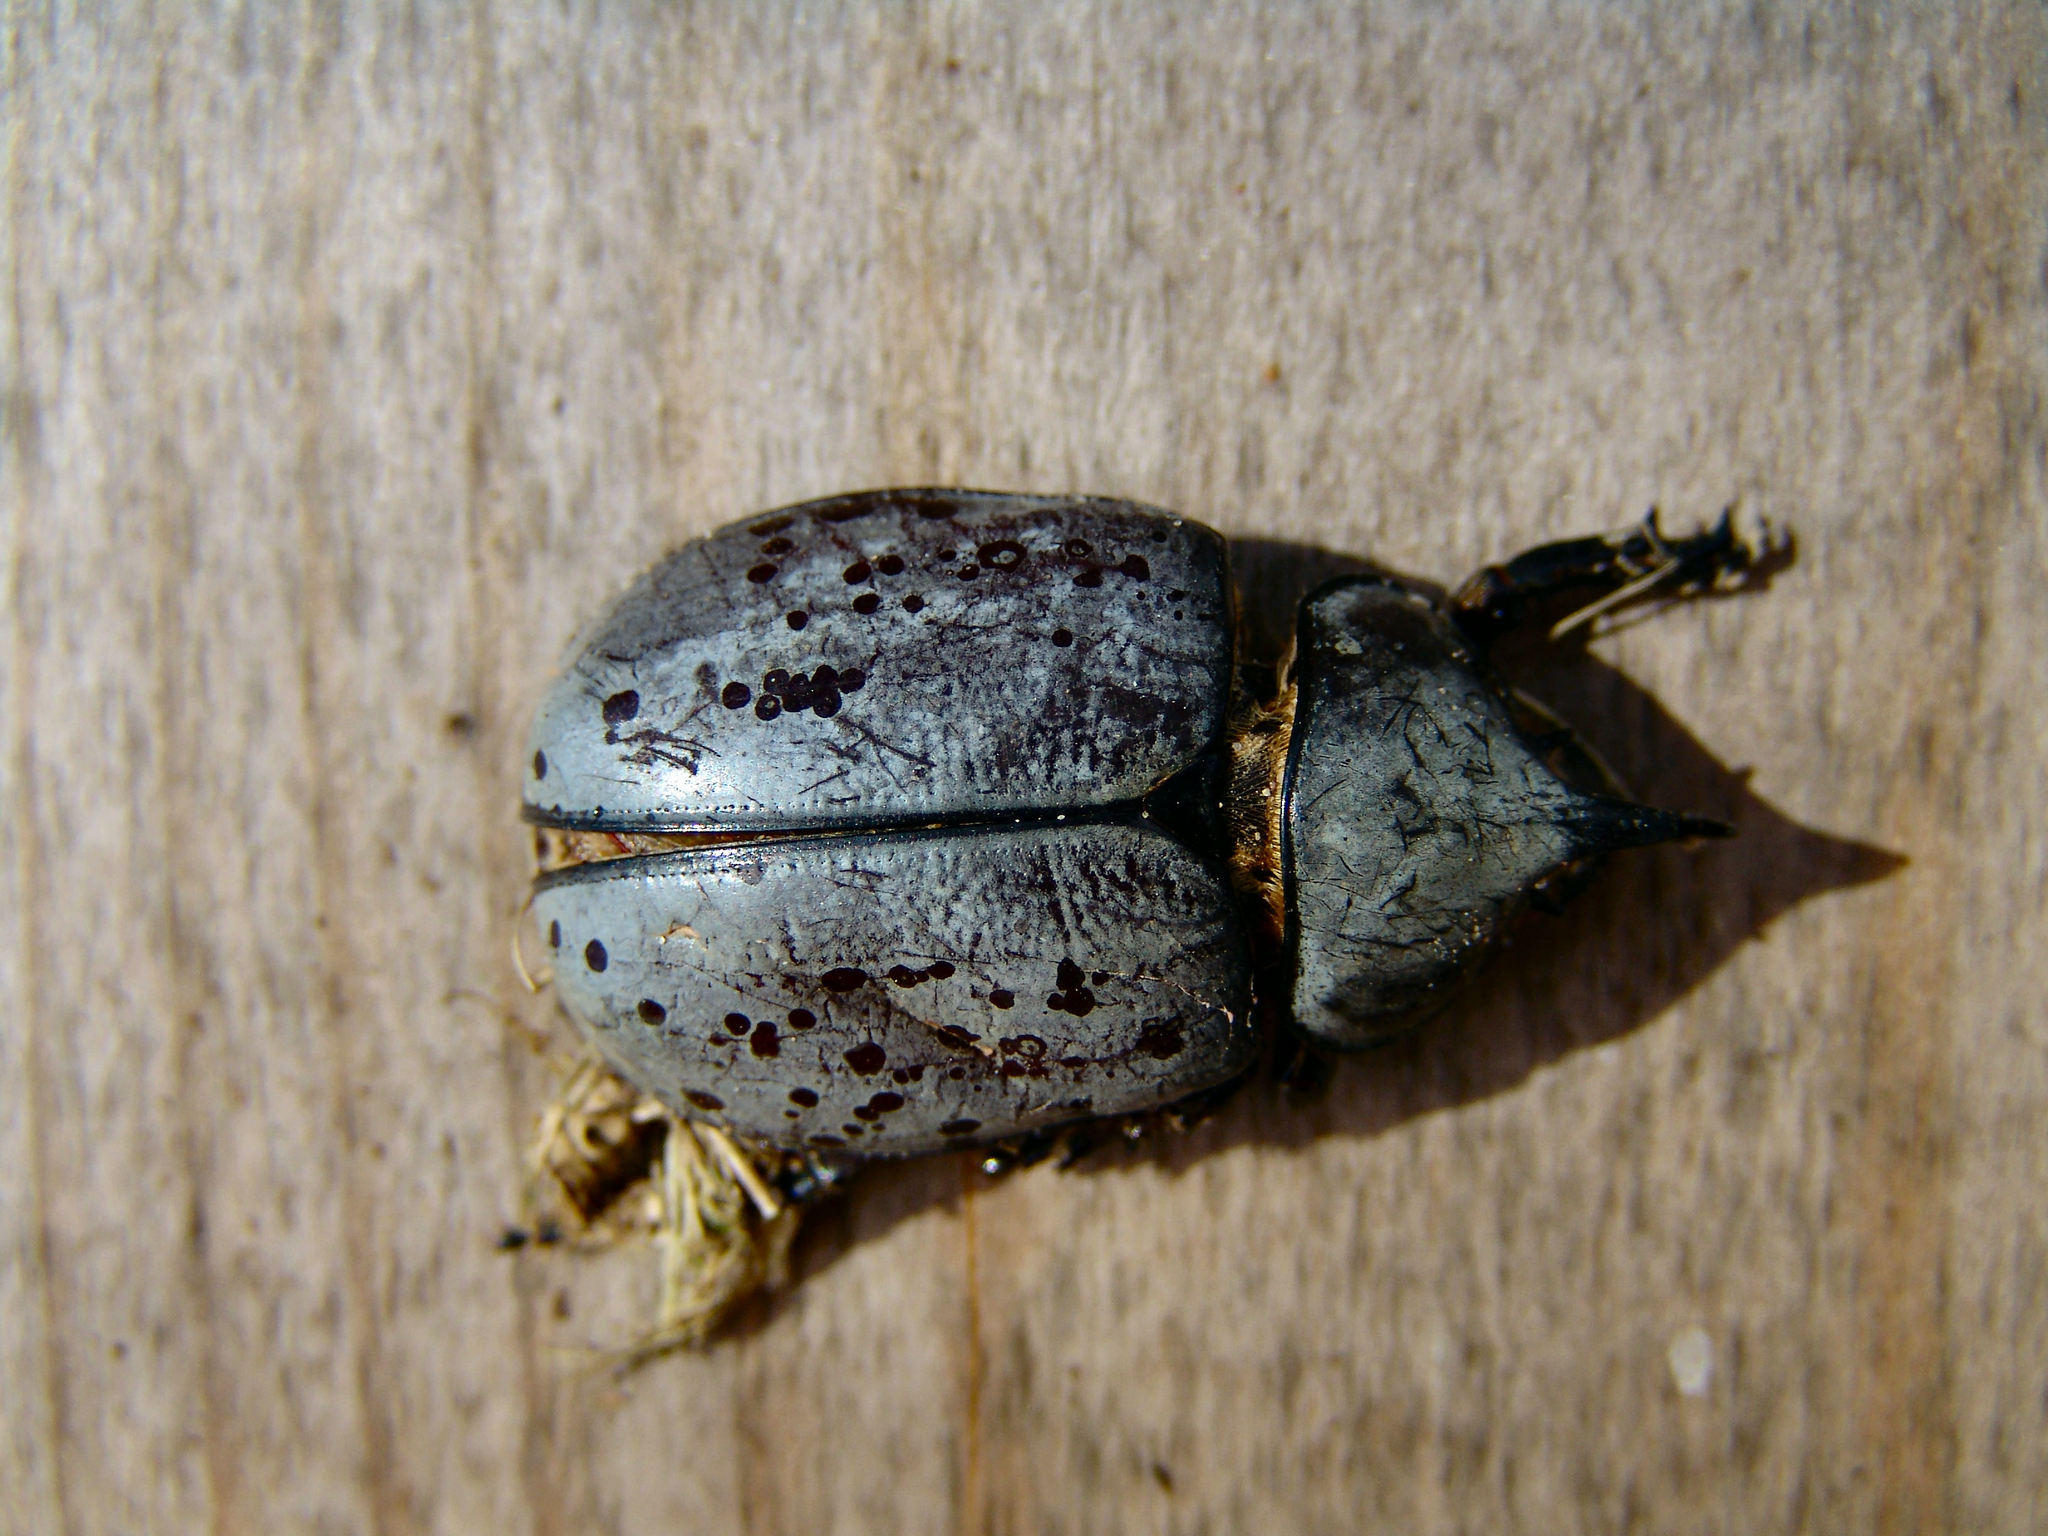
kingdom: Animalia
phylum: Arthropoda
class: Insecta
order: Coleoptera
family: Scarabaeidae
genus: Dynastes
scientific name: Dynastes tityus
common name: Eastern hercules beetle
